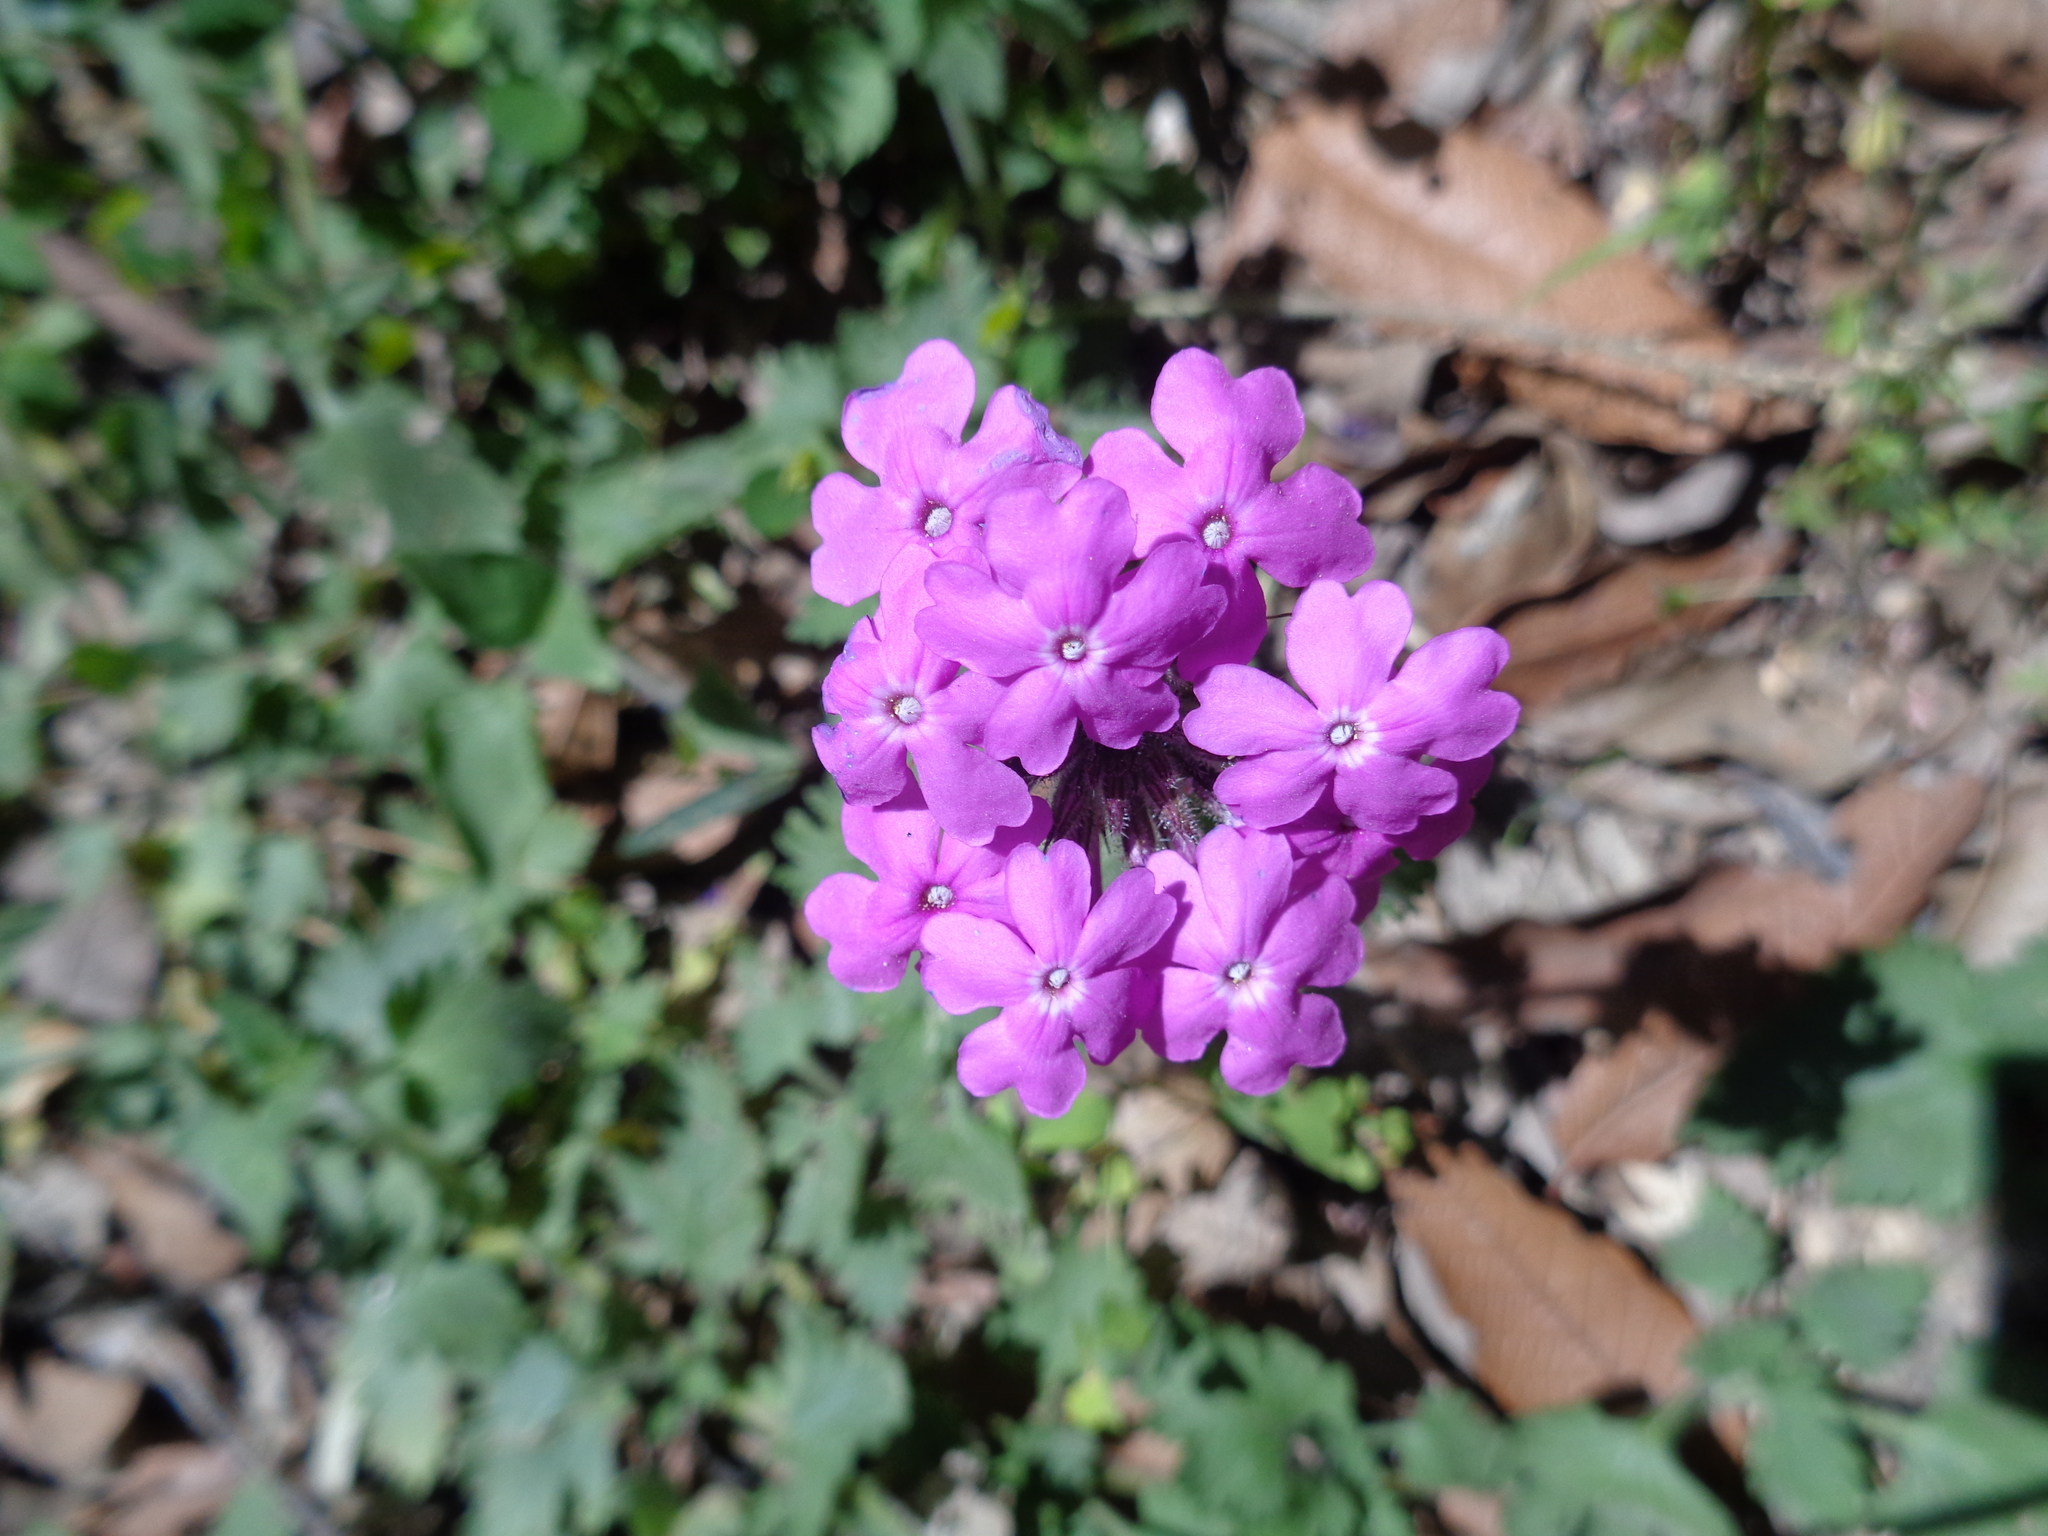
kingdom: Plantae
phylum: Tracheophyta
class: Magnoliopsida
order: Lamiales
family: Verbenaceae
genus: Verbena
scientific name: Verbena canadensis
